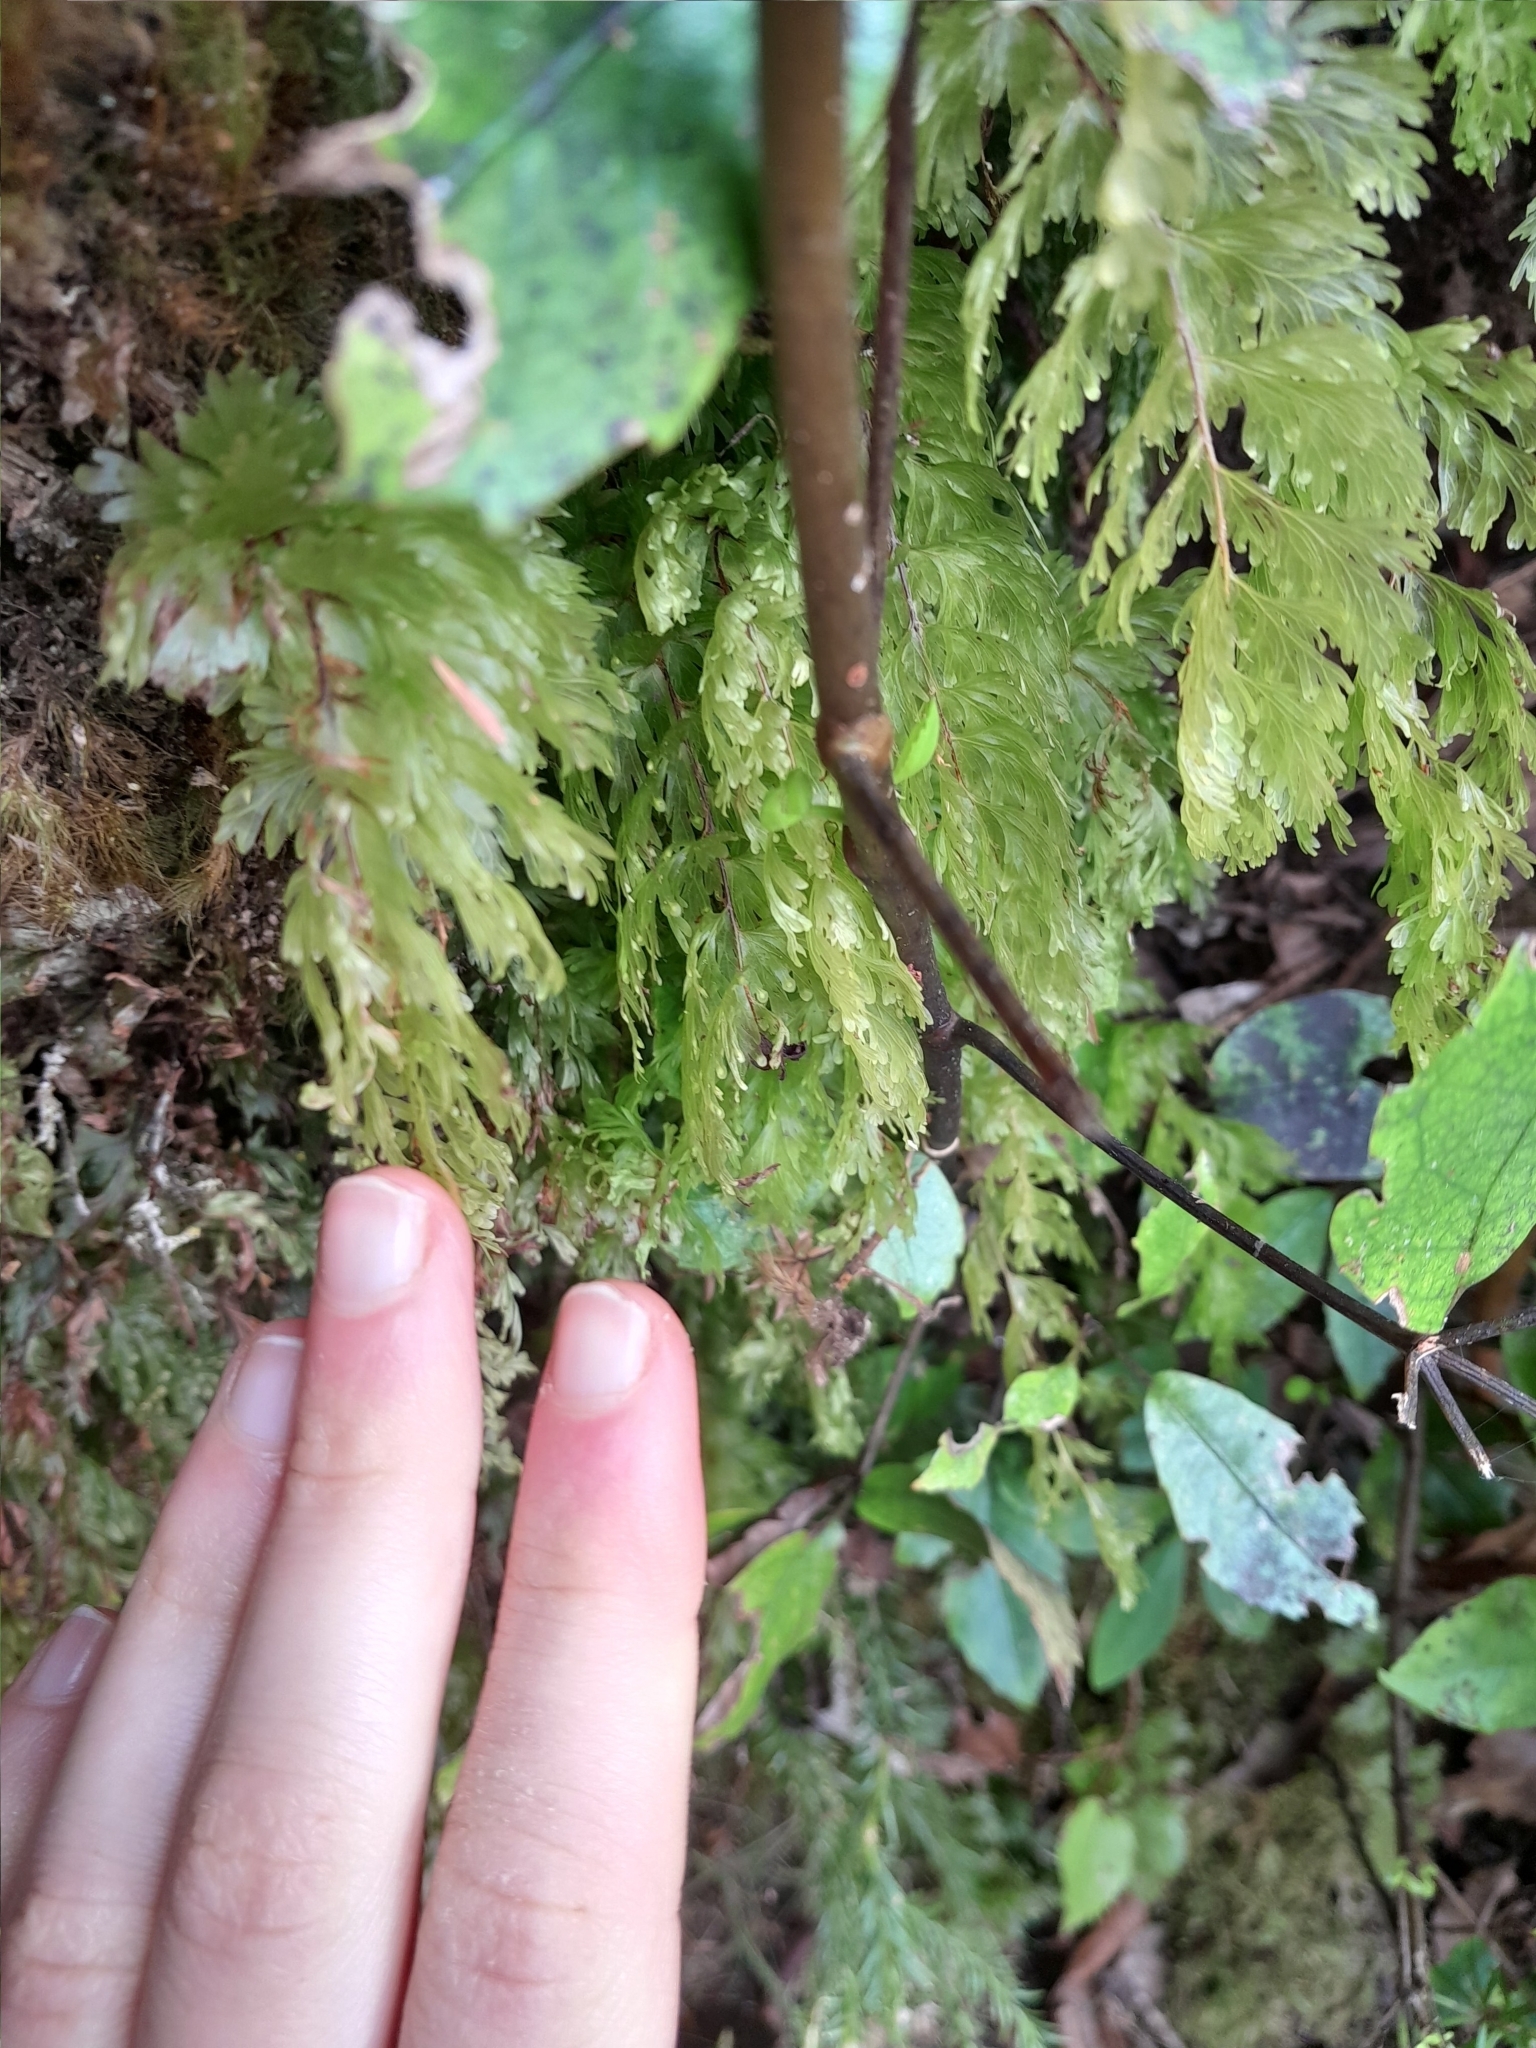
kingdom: Plantae
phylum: Tracheophyta
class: Polypodiopsida
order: Hymenophyllales
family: Hymenophyllaceae
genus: Hymenophyllum
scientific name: Hymenophyllum flabellatum
